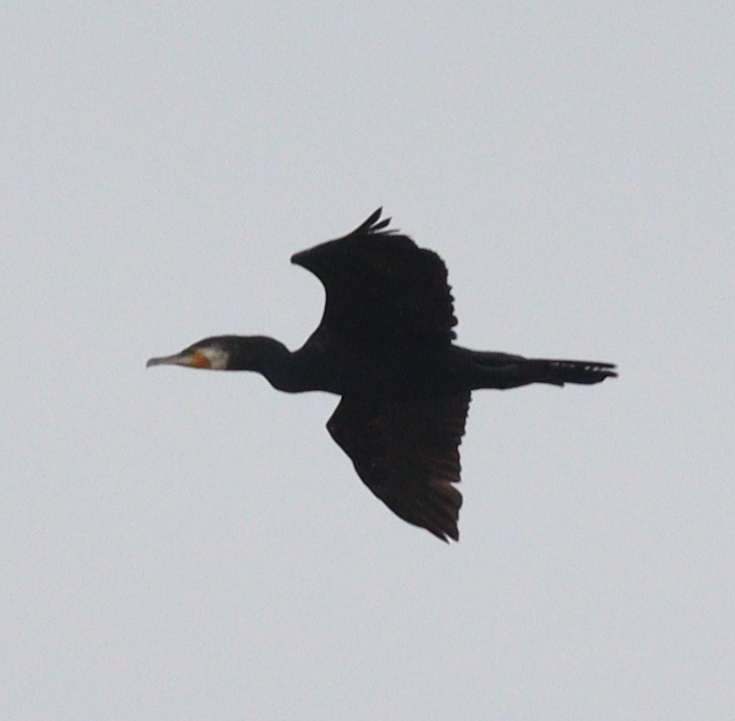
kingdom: Animalia
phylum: Chordata
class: Aves
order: Suliformes
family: Phalacrocoracidae
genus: Phalacrocorax
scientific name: Phalacrocorax carbo
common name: Great cormorant
